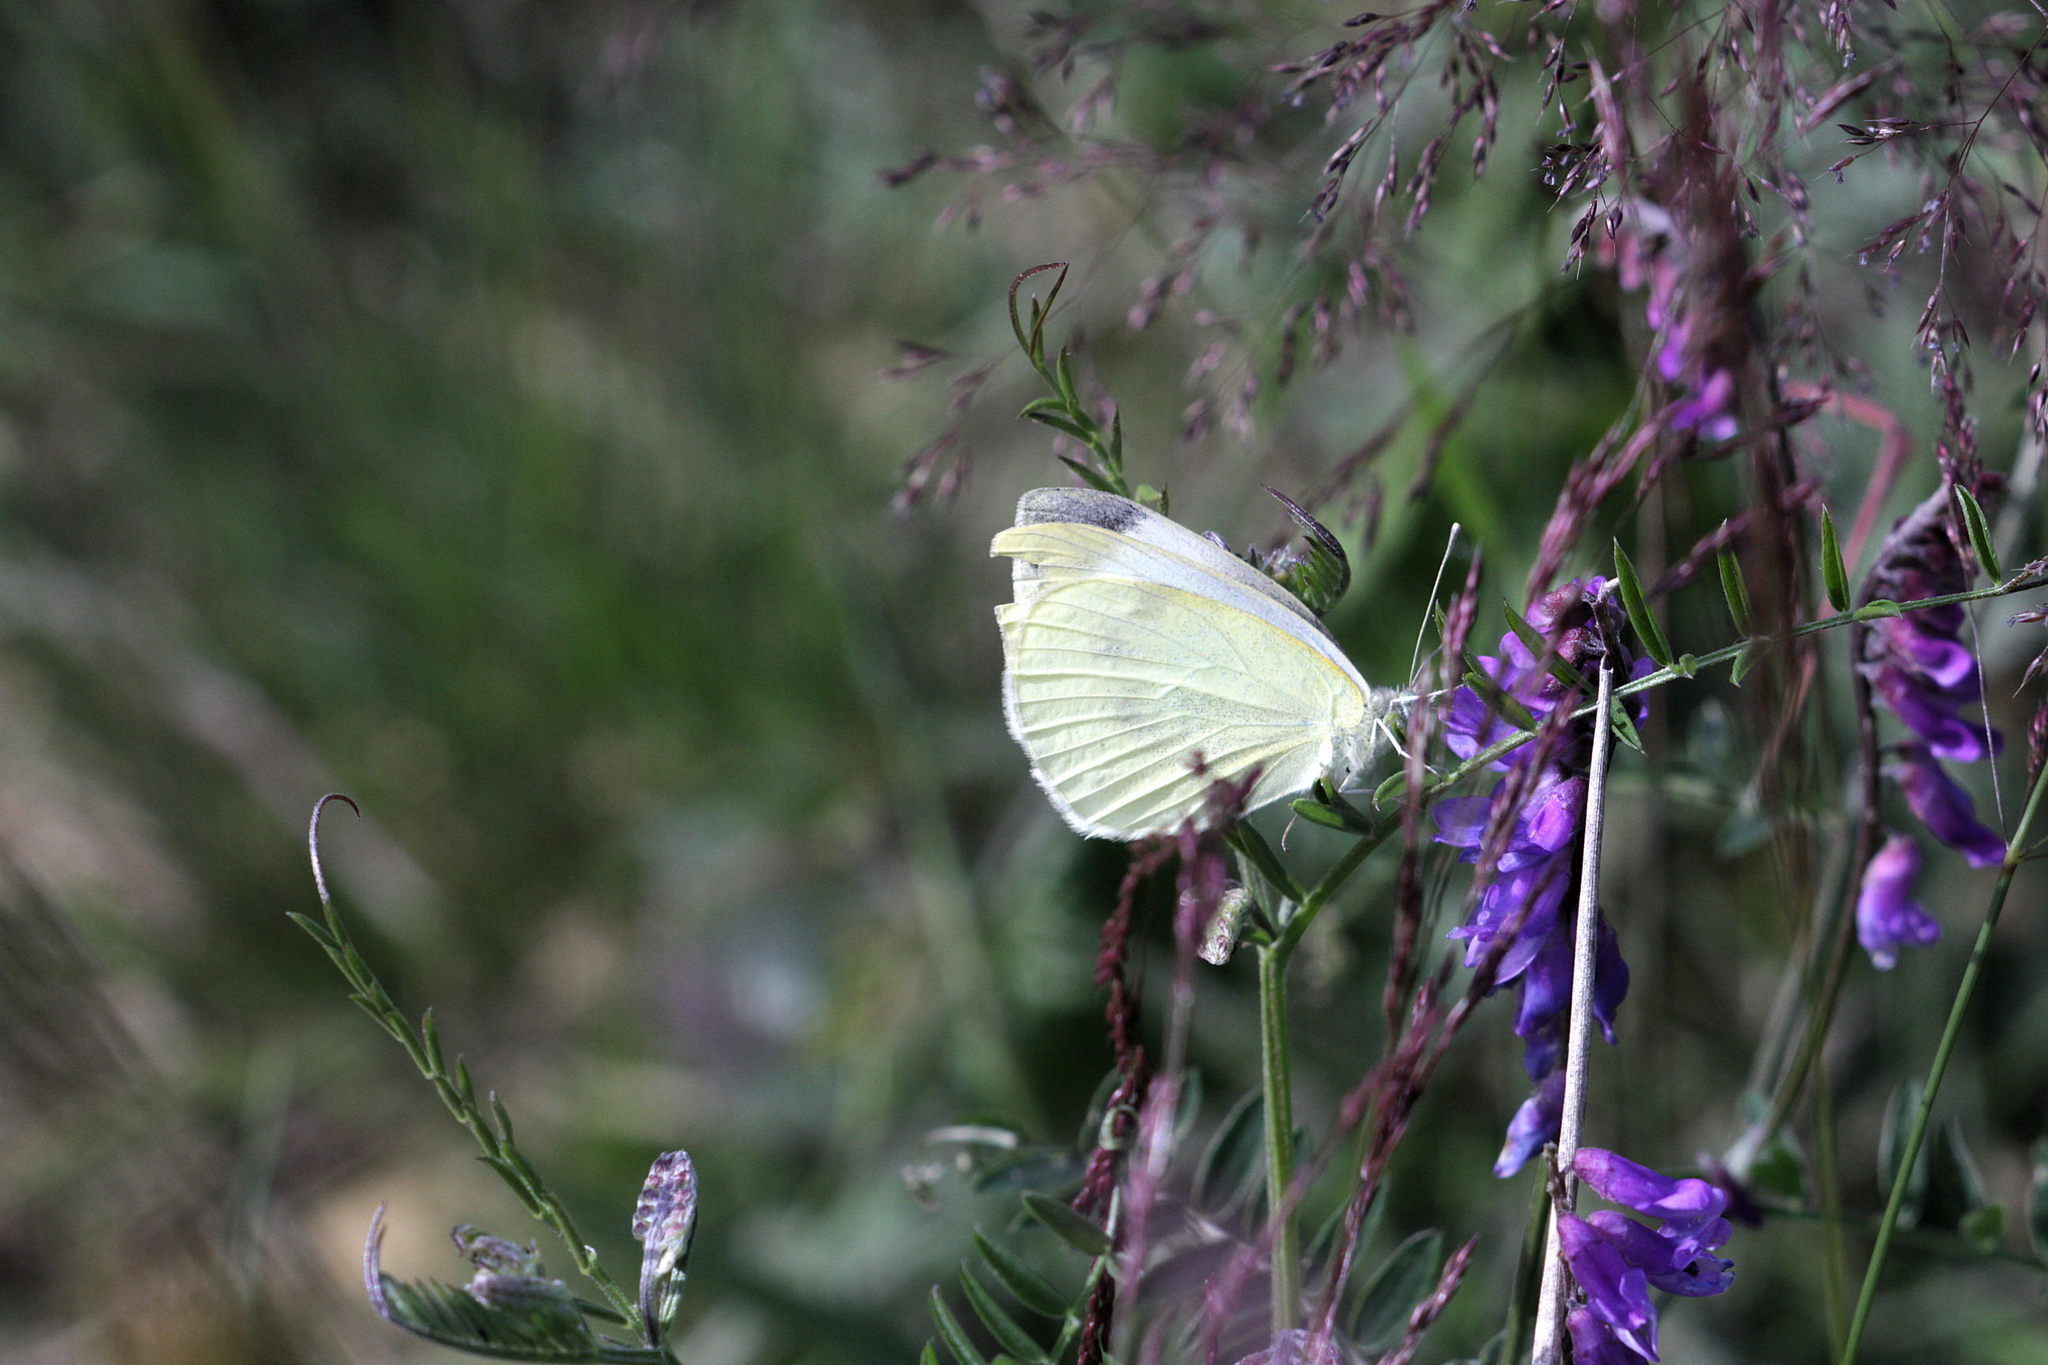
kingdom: Animalia
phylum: Arthropoda
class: Insecta
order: Lepidoptera
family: Pieridae
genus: Pieris
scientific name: Pieris rapae
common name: Small white
